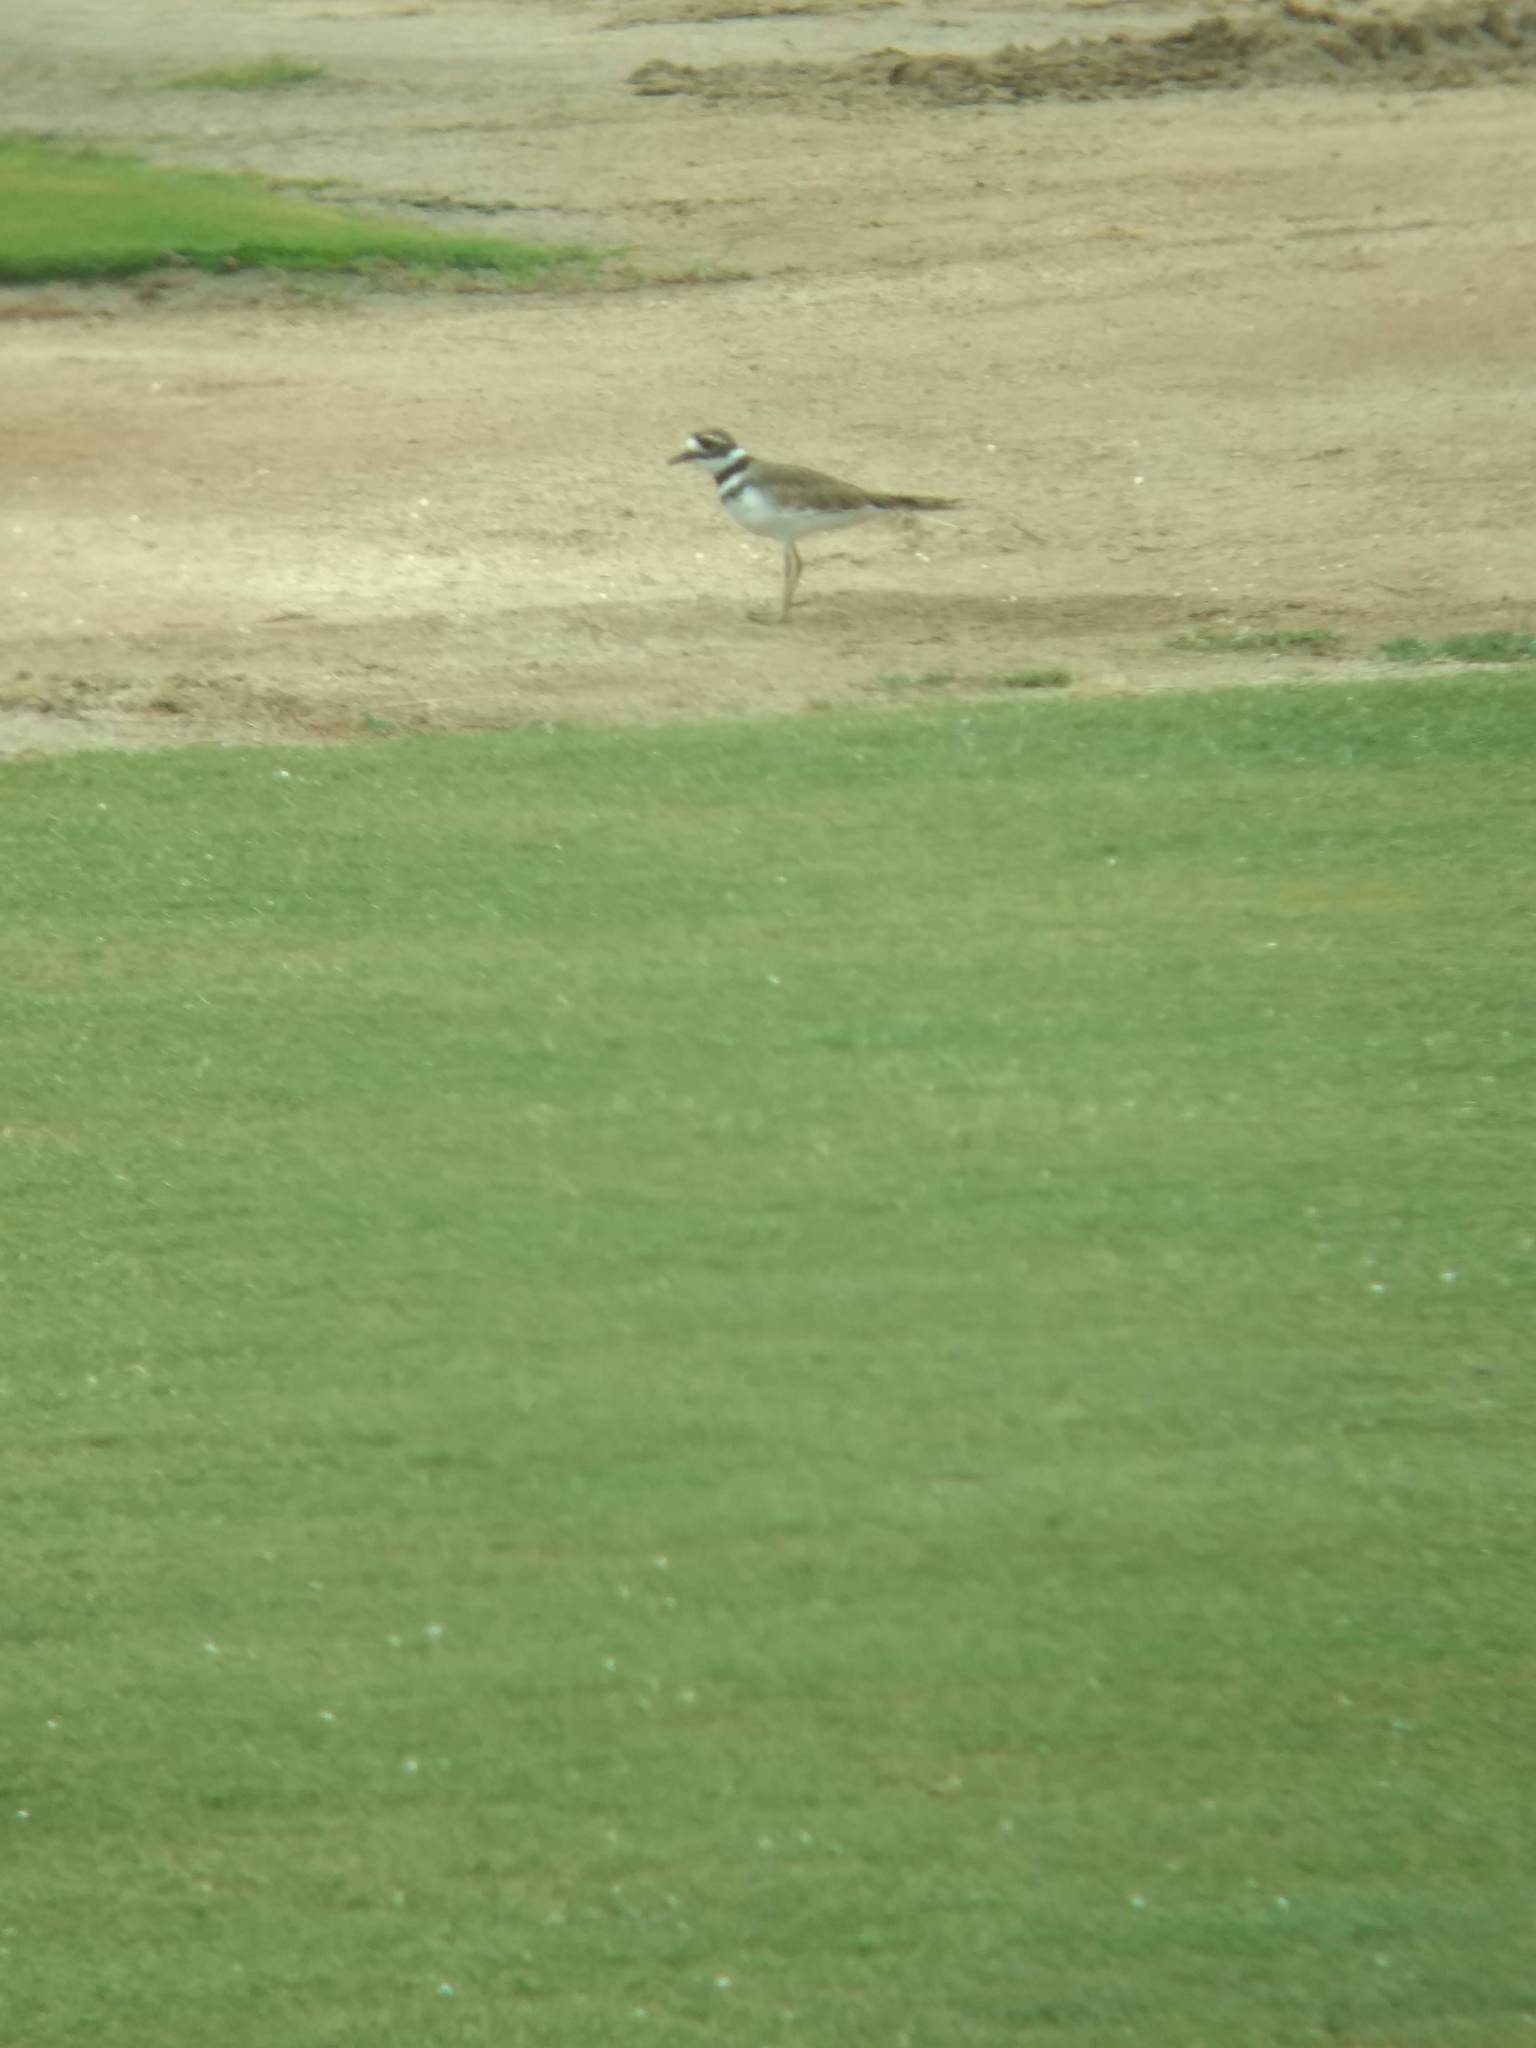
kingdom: Animalia
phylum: Chordata
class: Aves
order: Charadriiformes
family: Charadriidae
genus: Charadrius
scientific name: Charadrius vociferus
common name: Killdeer
